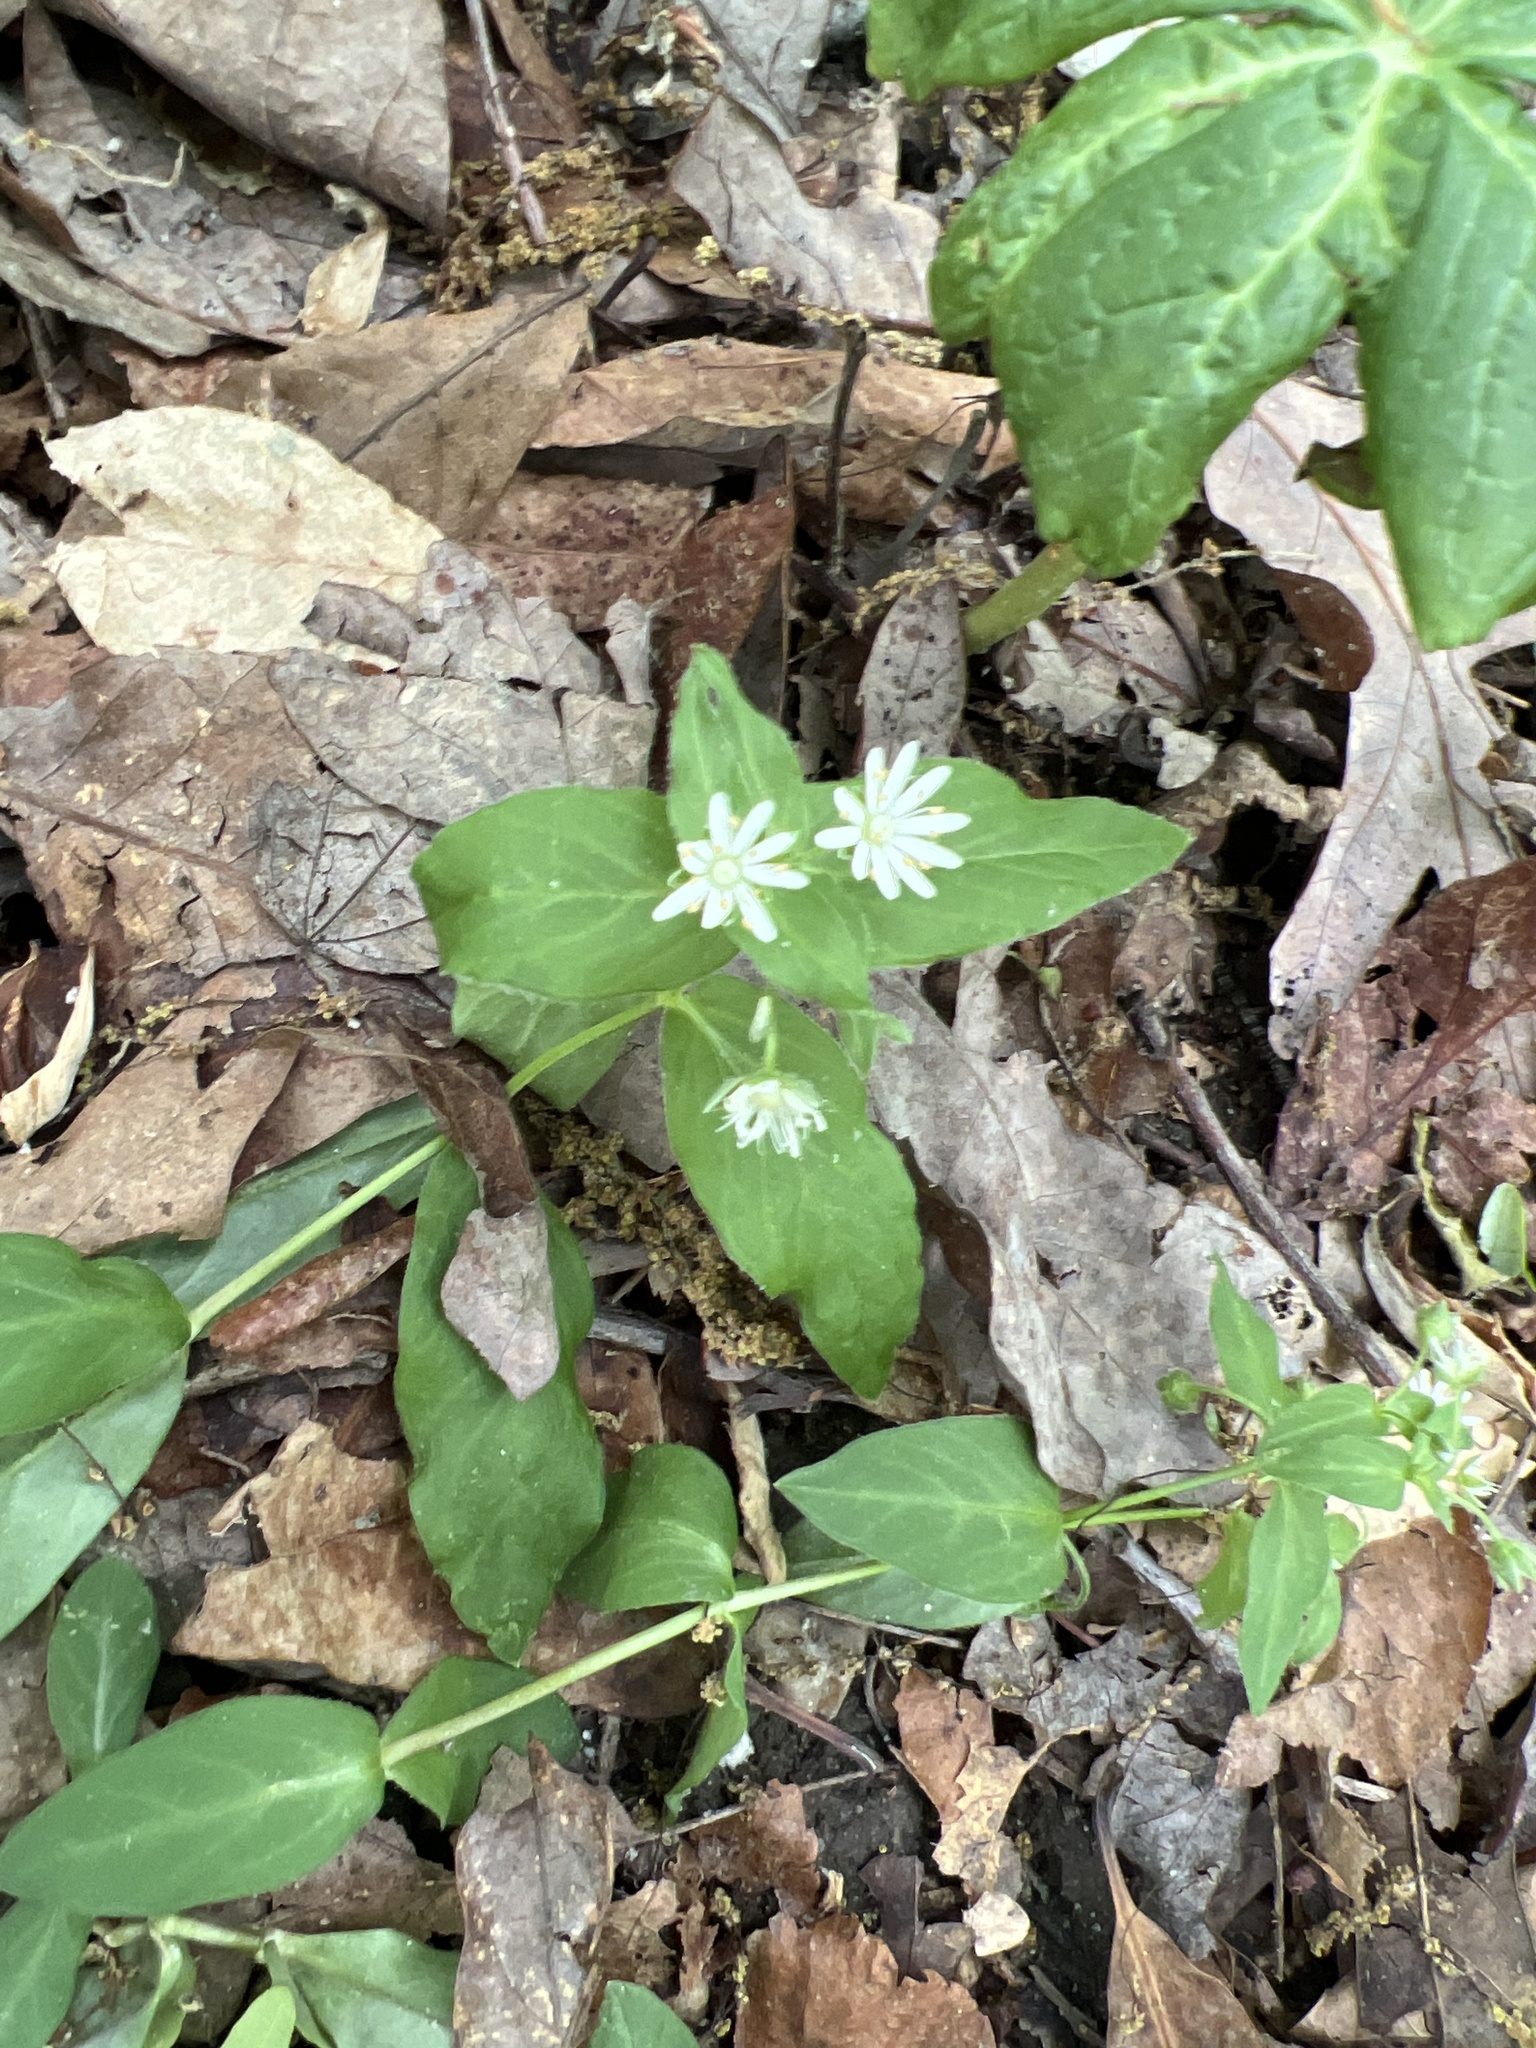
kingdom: Plantae
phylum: Tracheophyta
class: Magnoliopsida
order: Caryophyllales
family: Caryophyllaceae
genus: Stellaria
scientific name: Stellaria pubera
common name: Star chickweed
